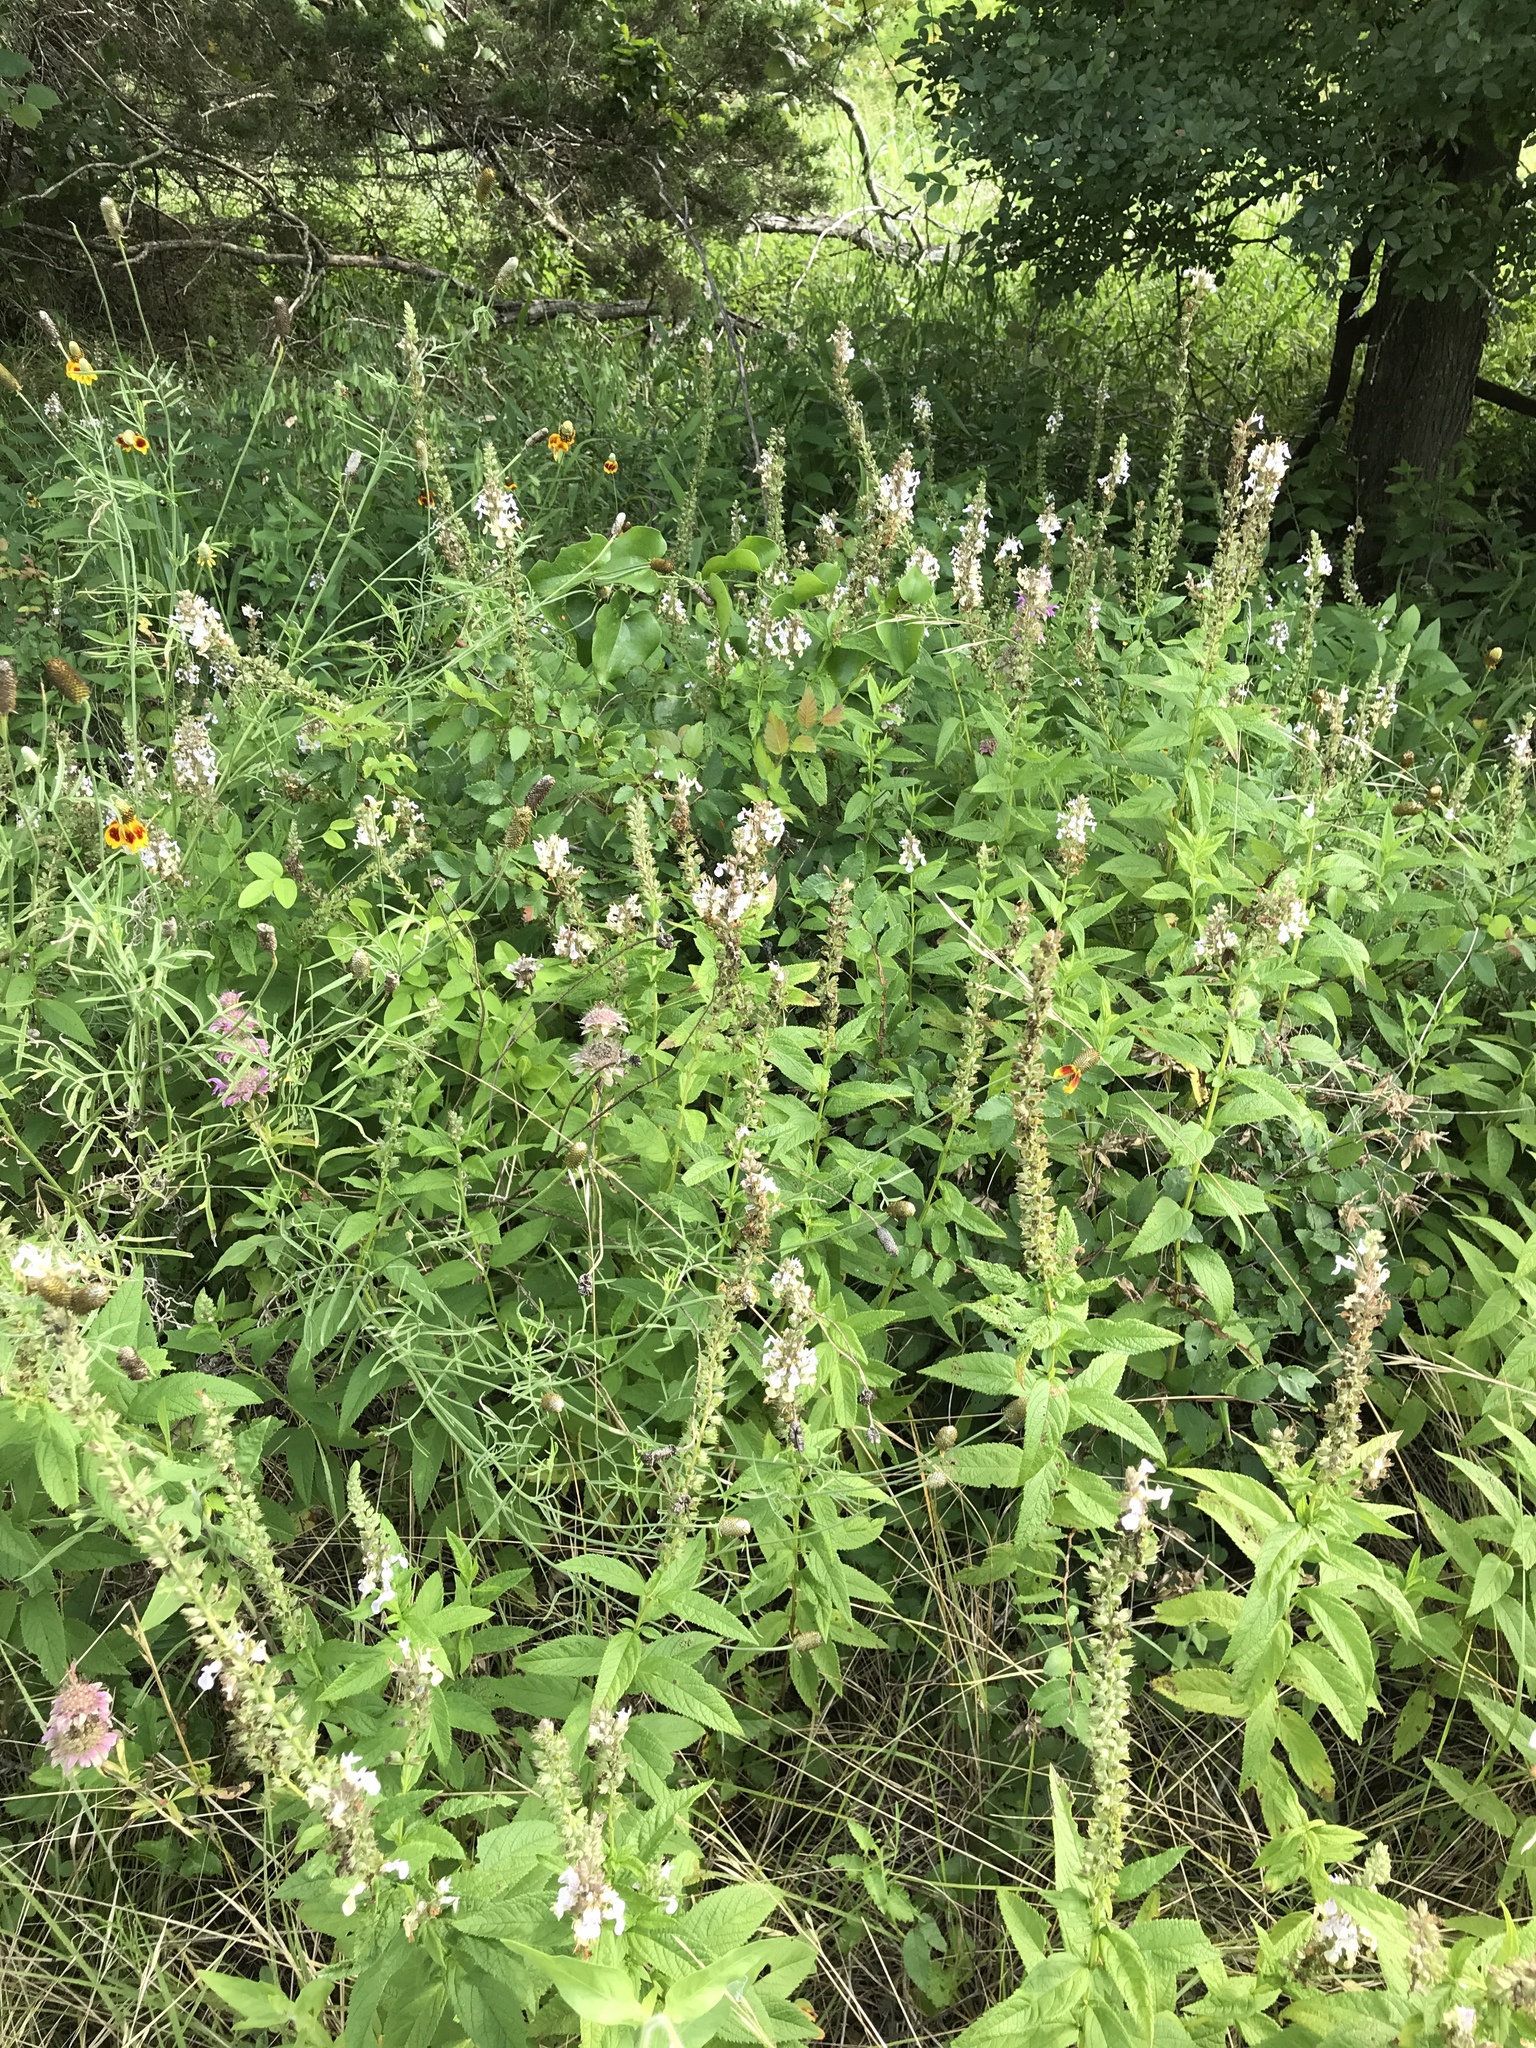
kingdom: Plantae
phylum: Tracheophyta
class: Magnoliopsida
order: Lamiales
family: Lamiaceae
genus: Teucrium
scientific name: Teucrium canadense
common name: American germander
